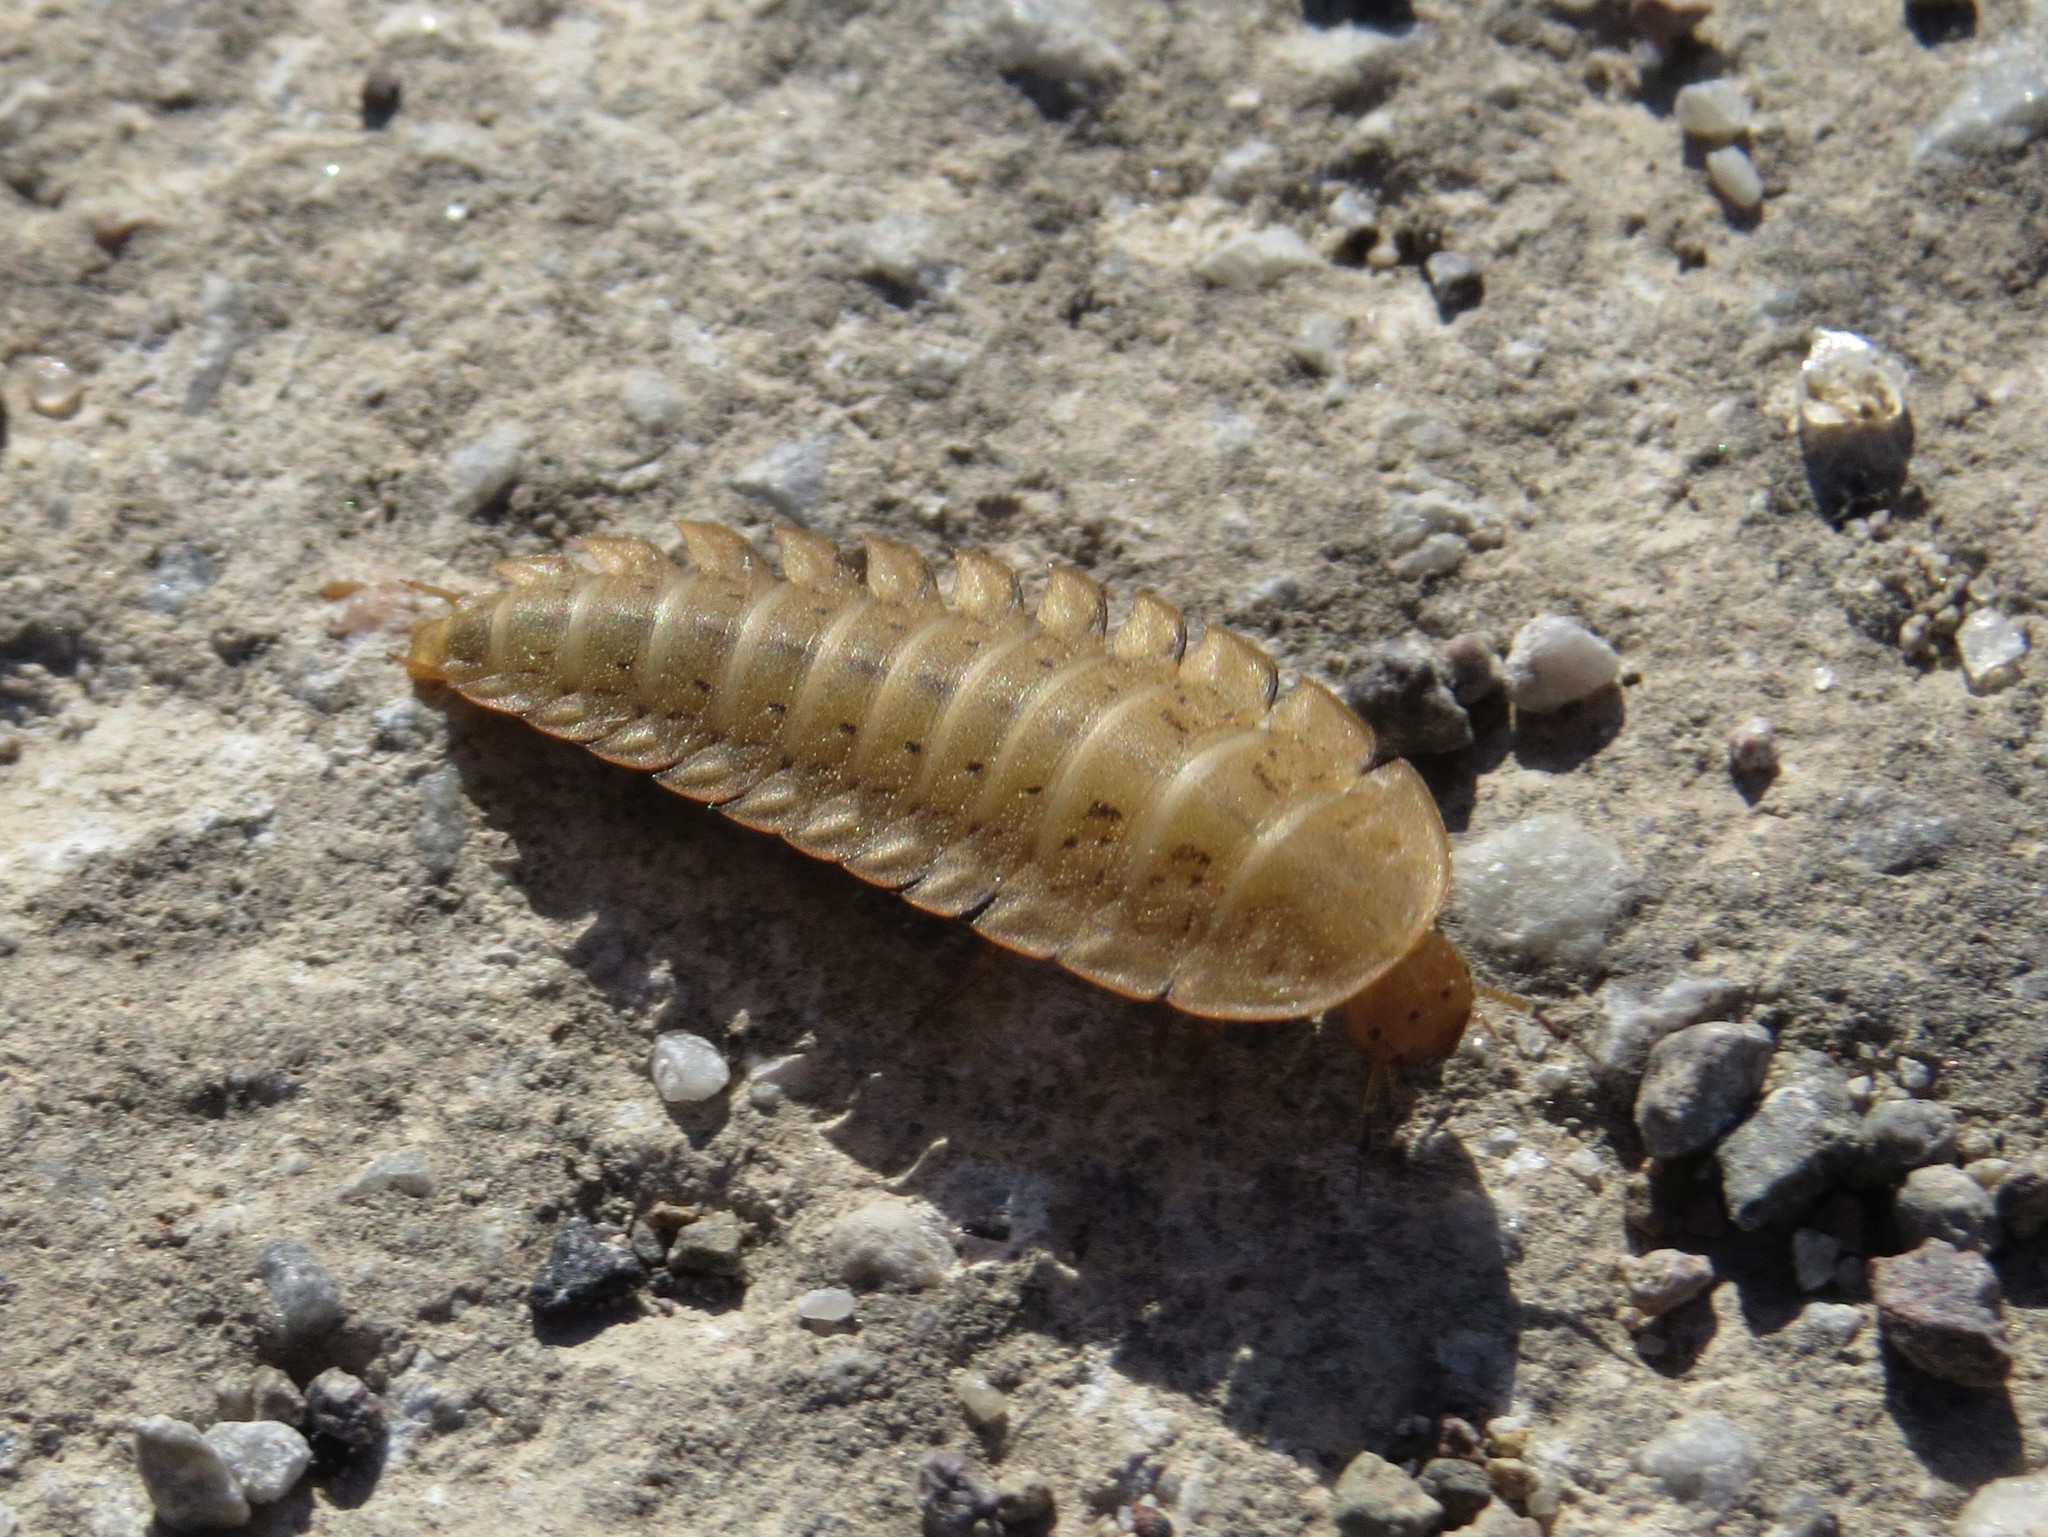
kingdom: Animalia
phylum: Arthropoda
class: Insecta
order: Coleoptera
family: Staphylinidae
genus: Silpha
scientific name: Silpha obscura
